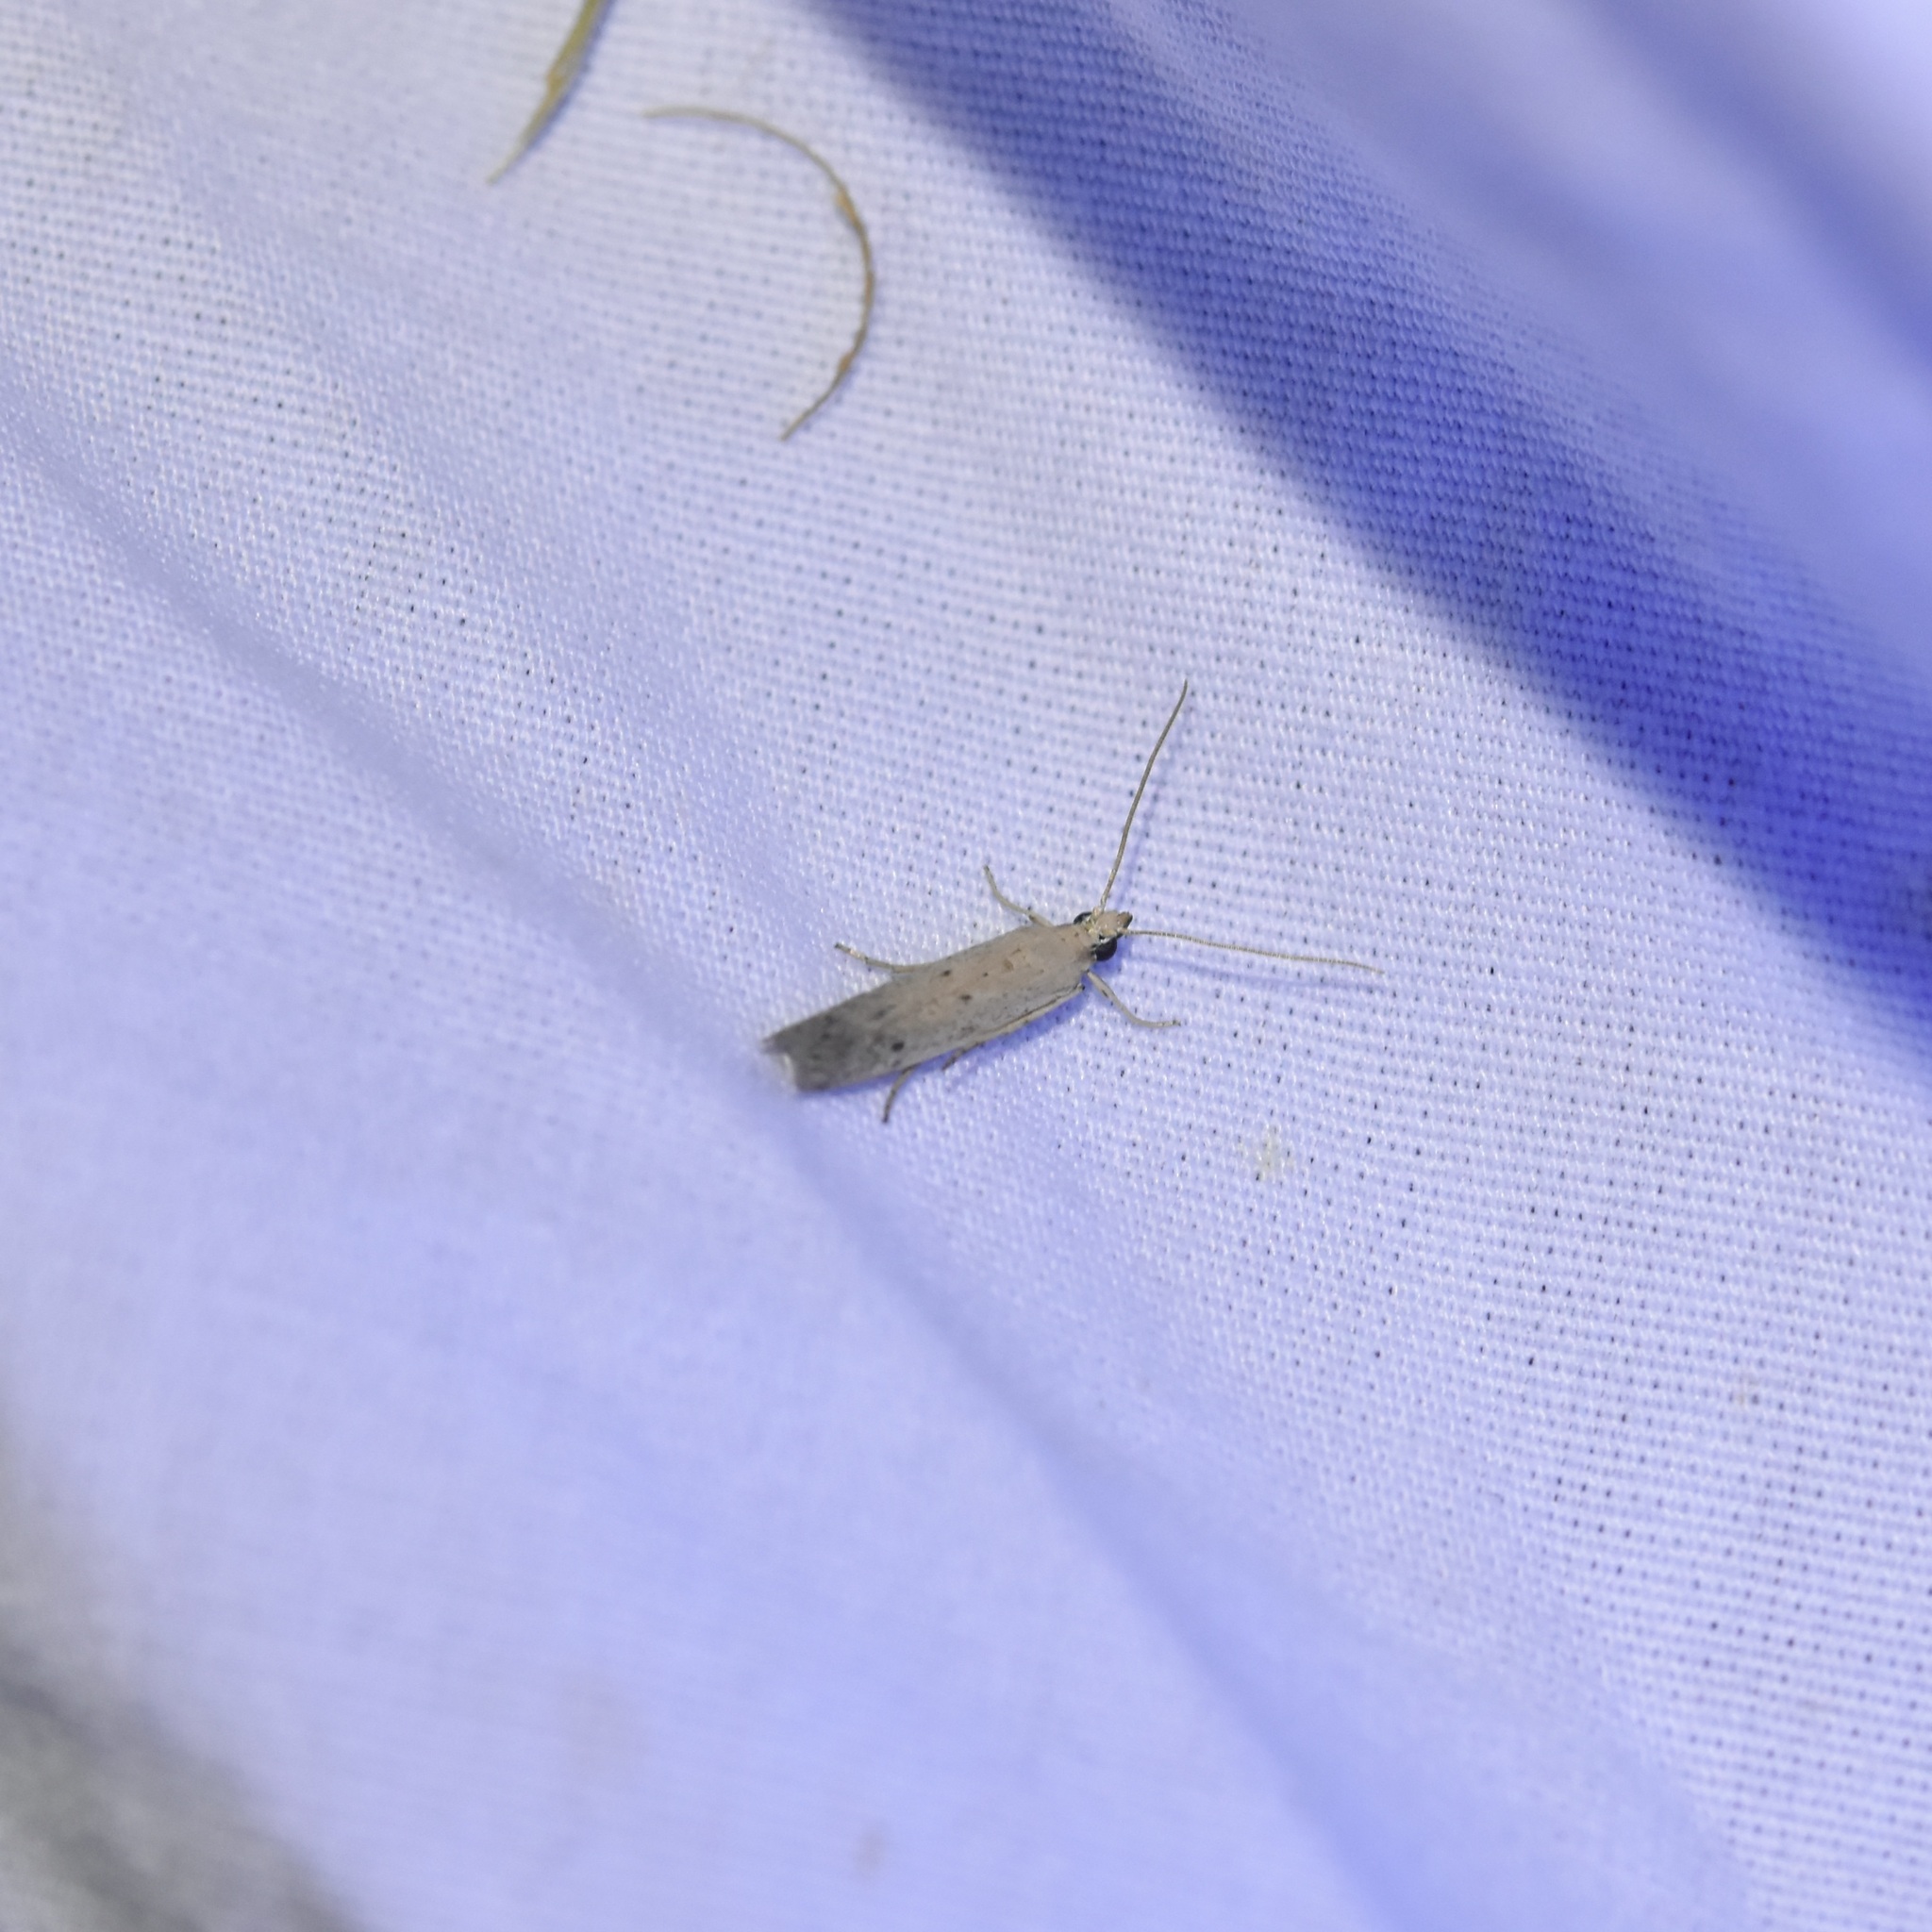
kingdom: Animalia
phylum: Arthropoda
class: Insecta
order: Lepidoptera
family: Pyralidae
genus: Homoeosoma
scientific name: Homoeosoma electella
